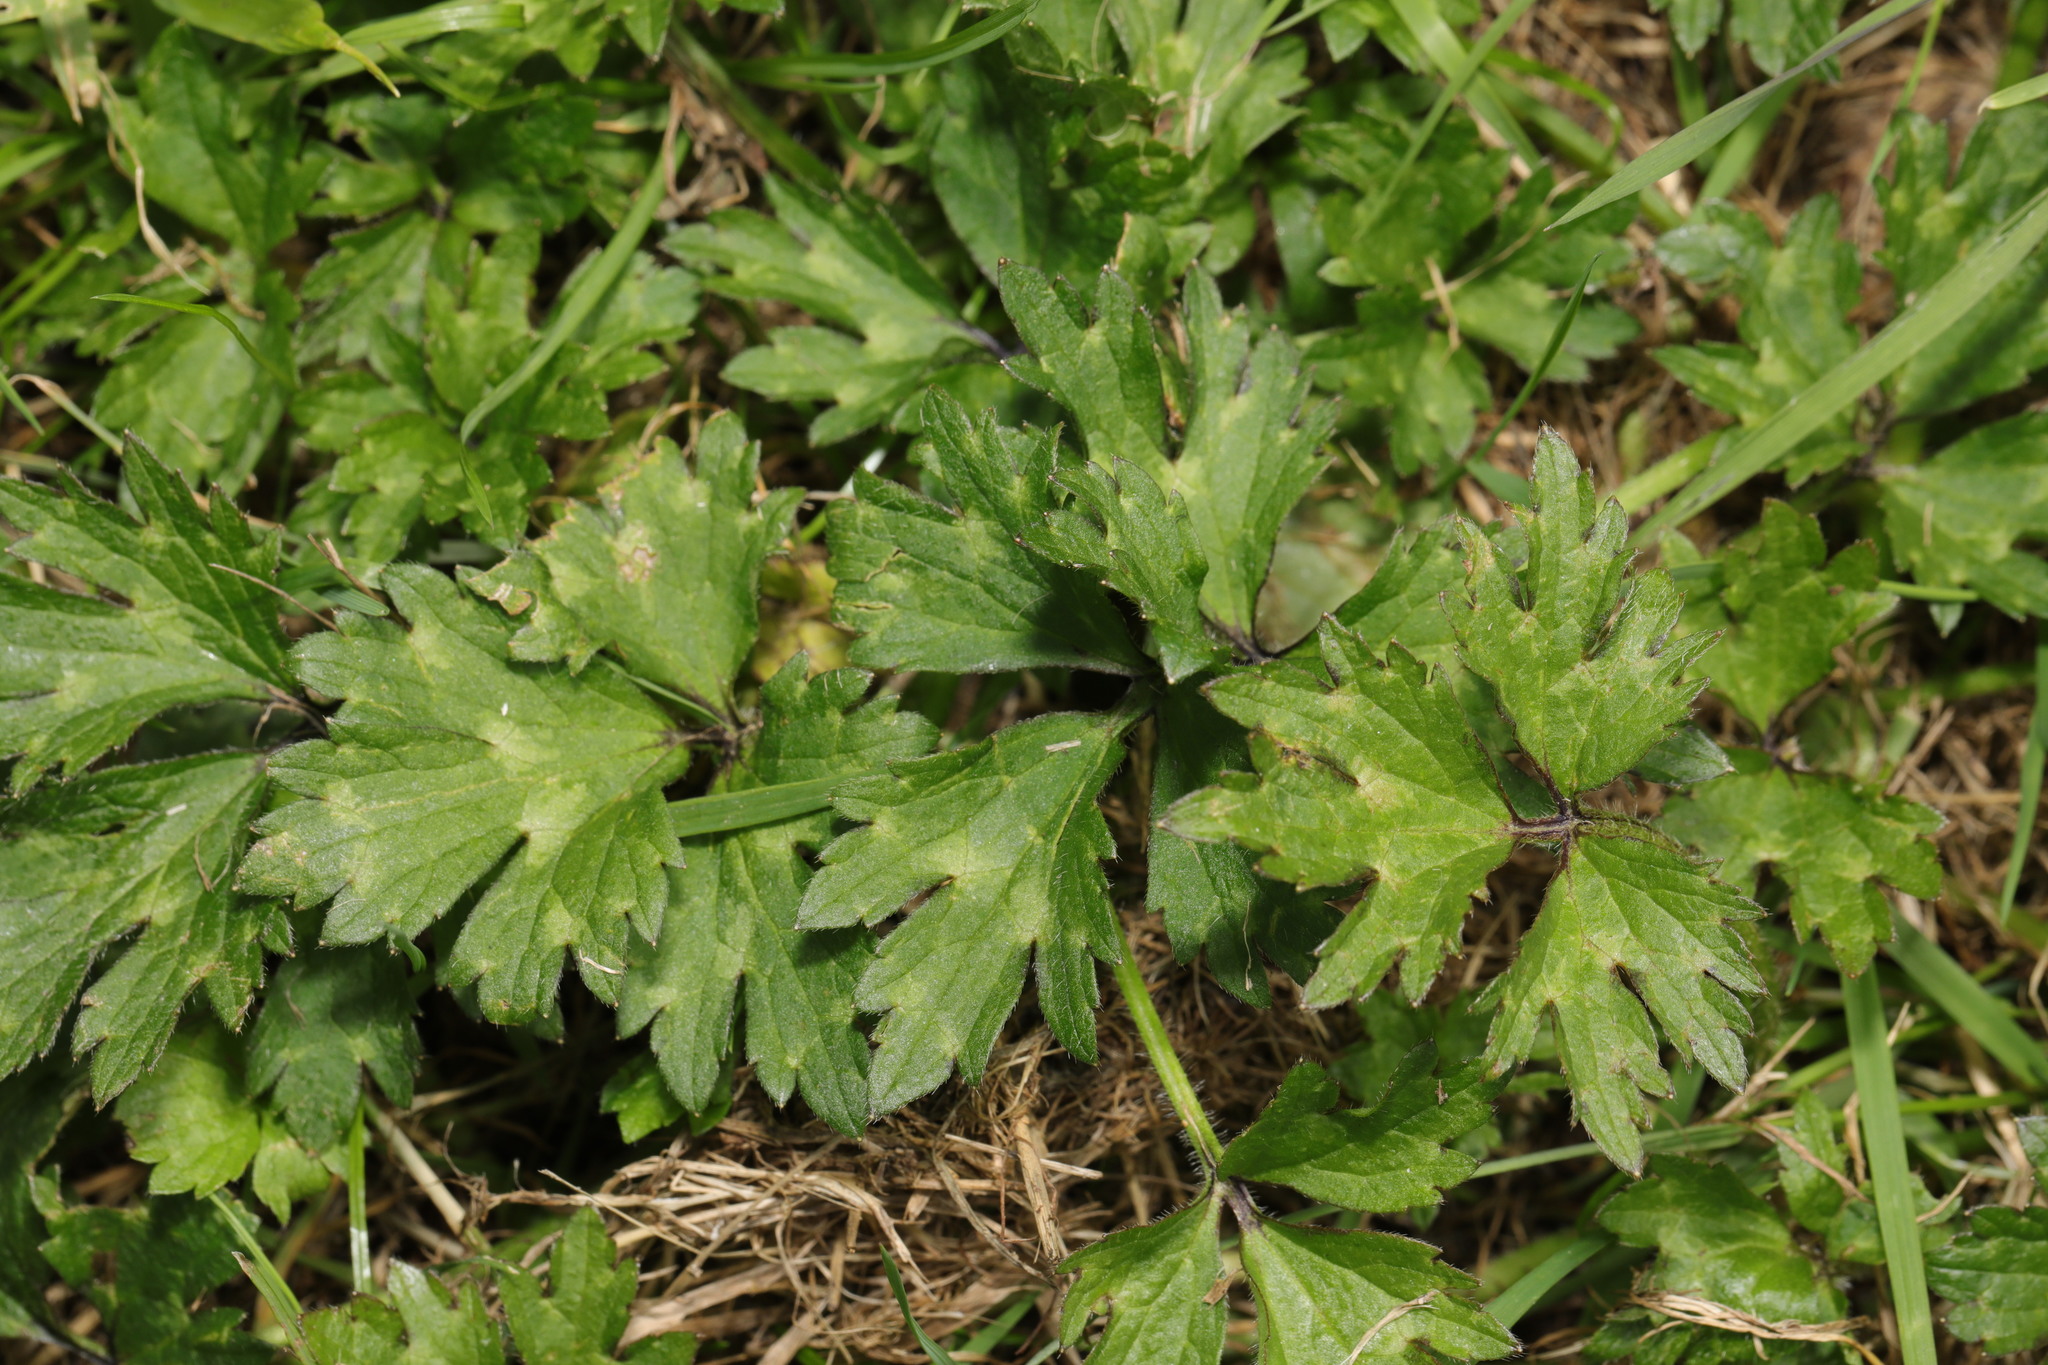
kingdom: Plantae
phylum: Tracheophyta
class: Magnoliopsida
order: Ranunculales
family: Ranunculaceae
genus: Ranunculus
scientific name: Ranunculus repens
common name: Creeping buttercup
